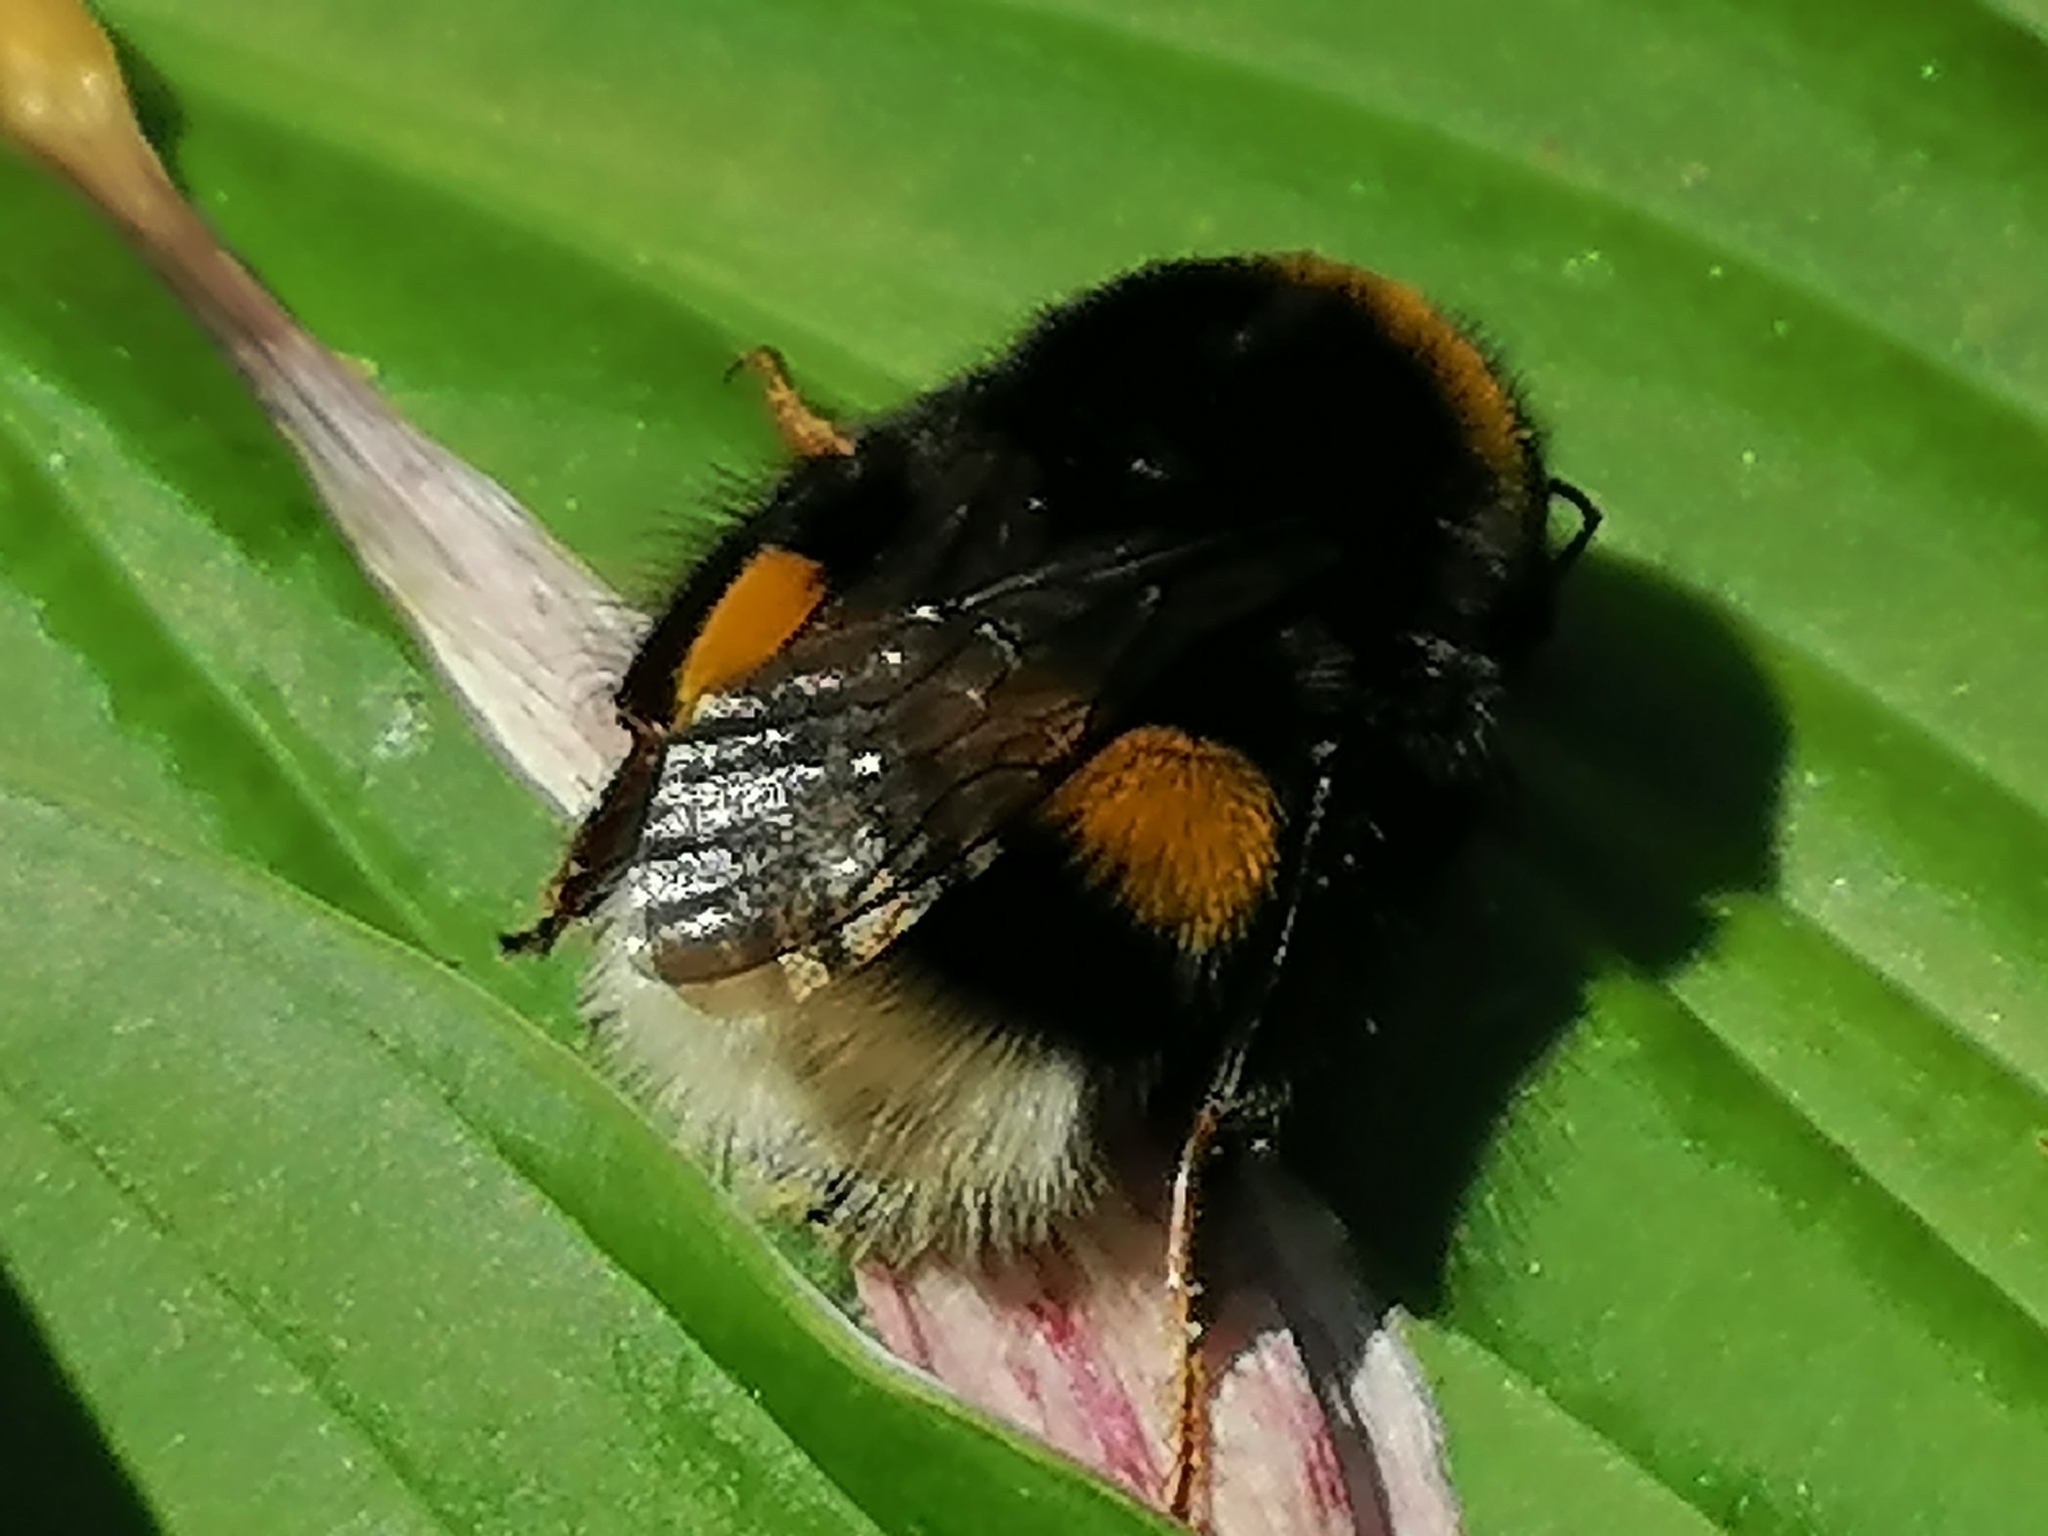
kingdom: Animalia
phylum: Arthropoda
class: Insecta
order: Hymenoptera
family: Apidae
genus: Bombus
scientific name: Bombus
